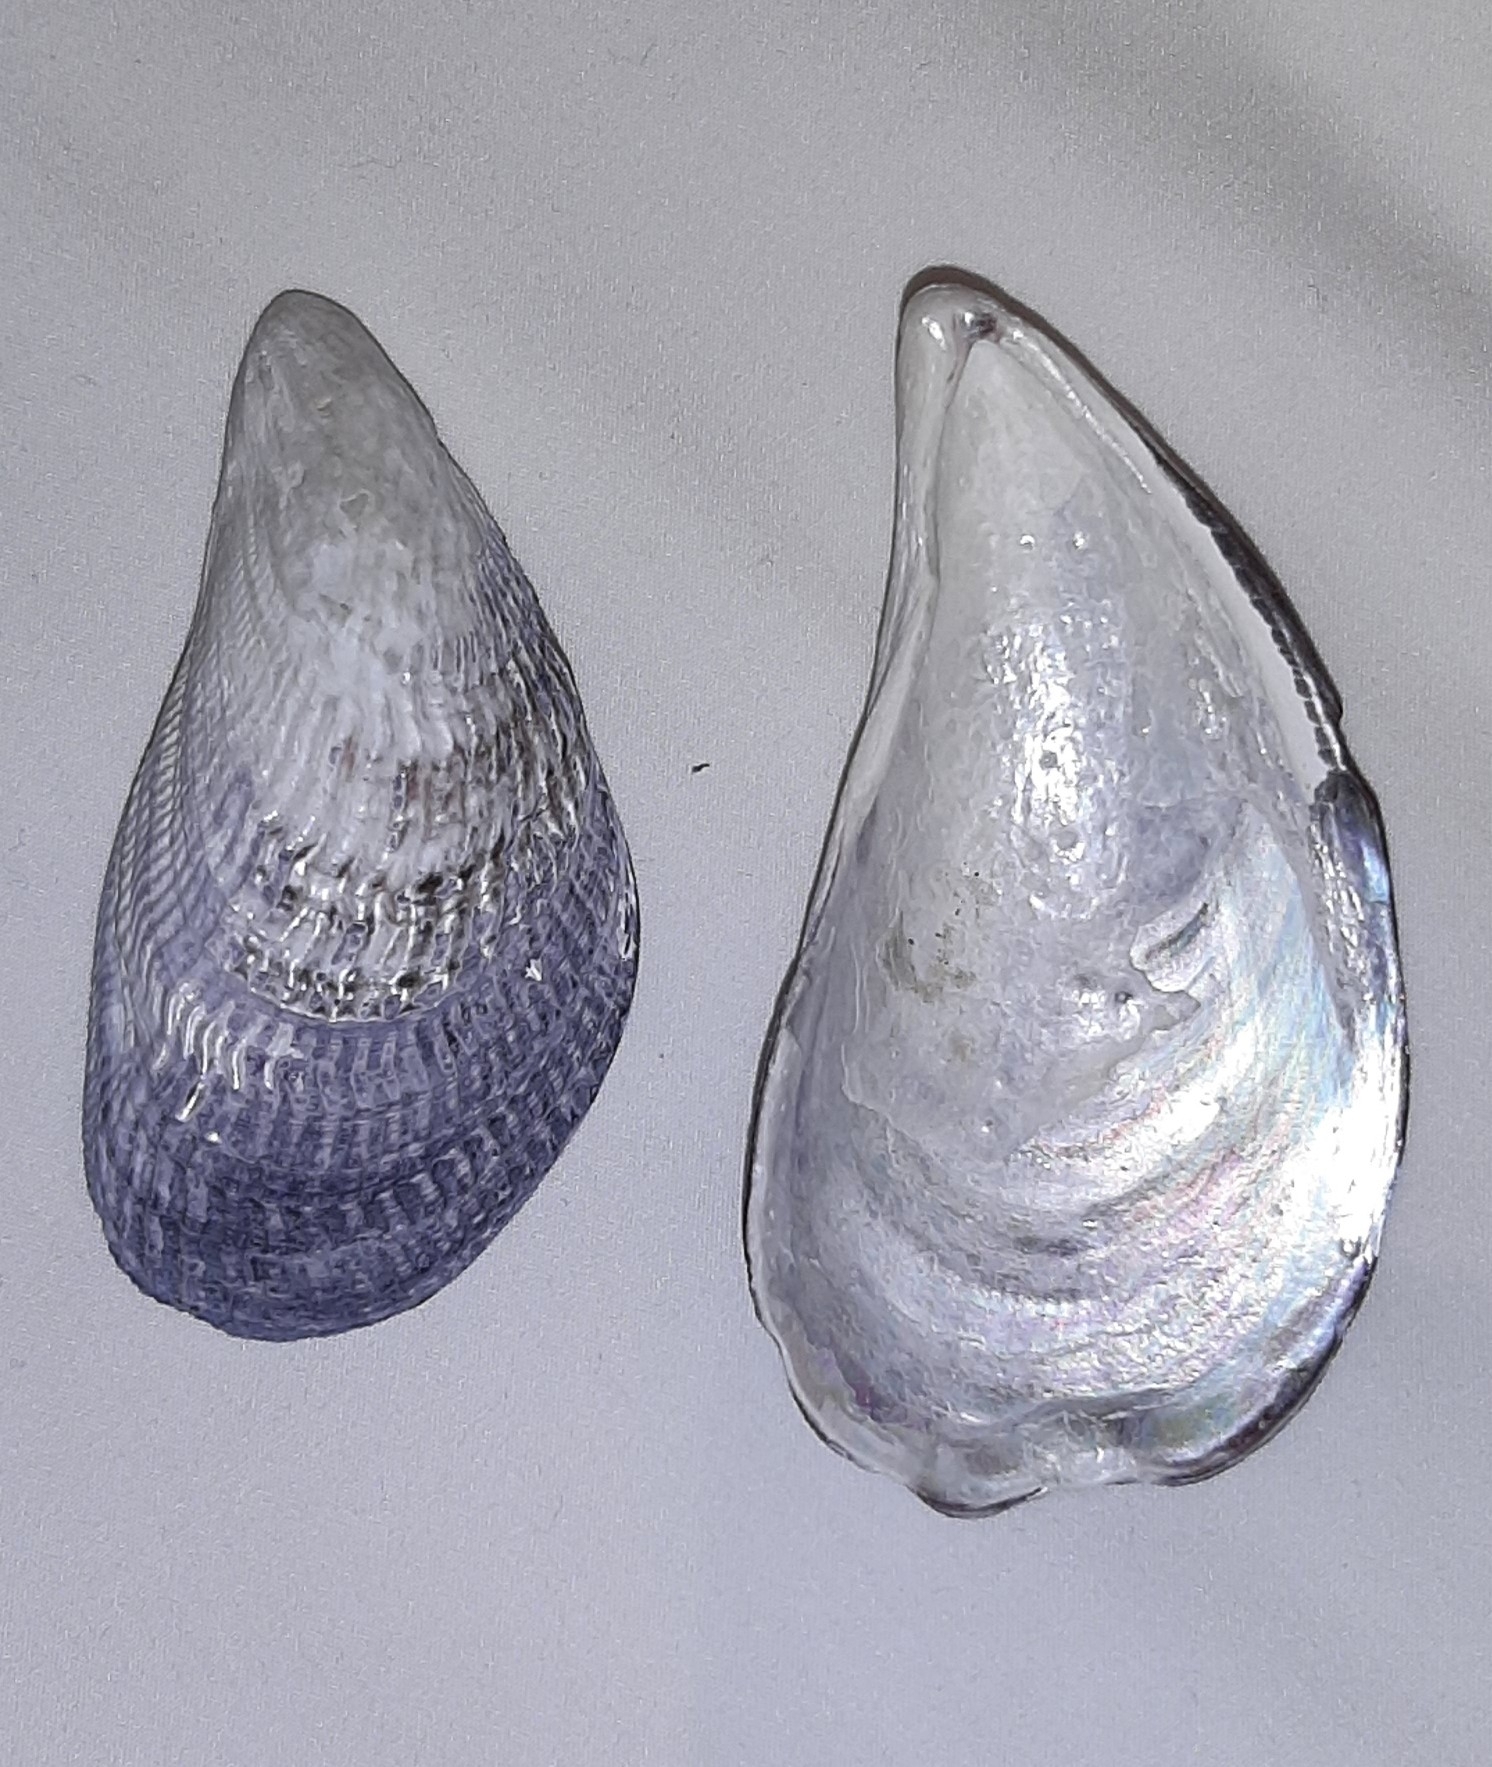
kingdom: Animalia
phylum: Mollusca
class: Bivalvia
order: Mytilida
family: Mytilidae
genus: Aulacomya
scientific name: Aulacomya atra
